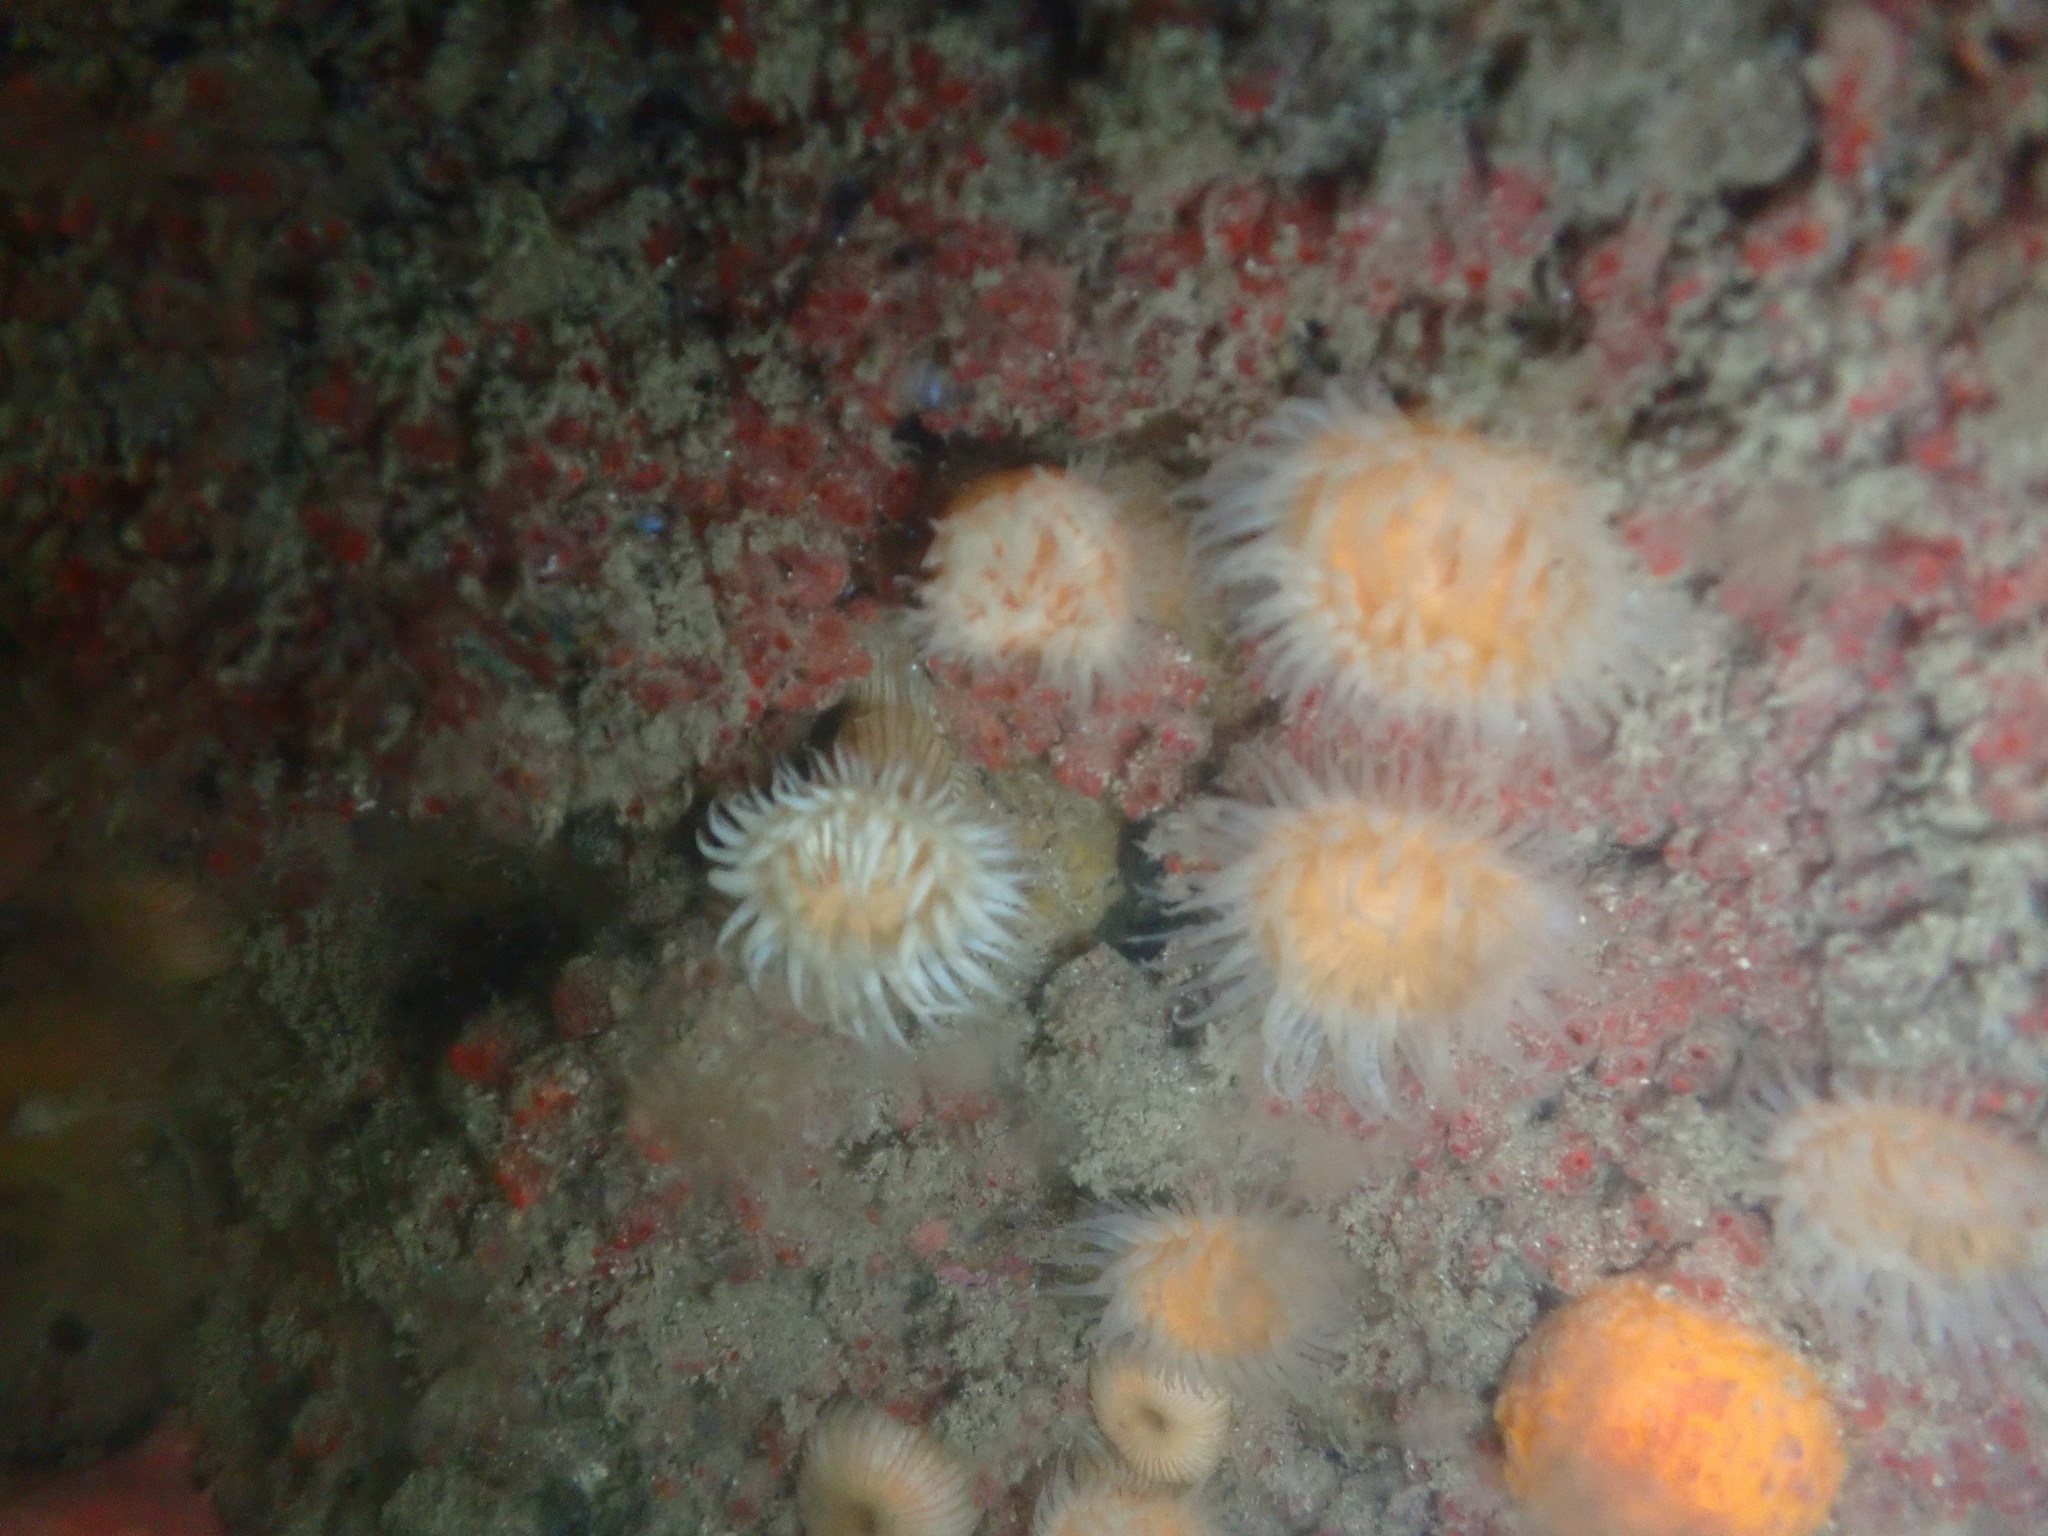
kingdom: Animalia
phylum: Chordata
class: Ascidiacea
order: Stolidobranchia
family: Styelidae
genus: Metandrocarpa
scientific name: Metandrocarpa thilenii
